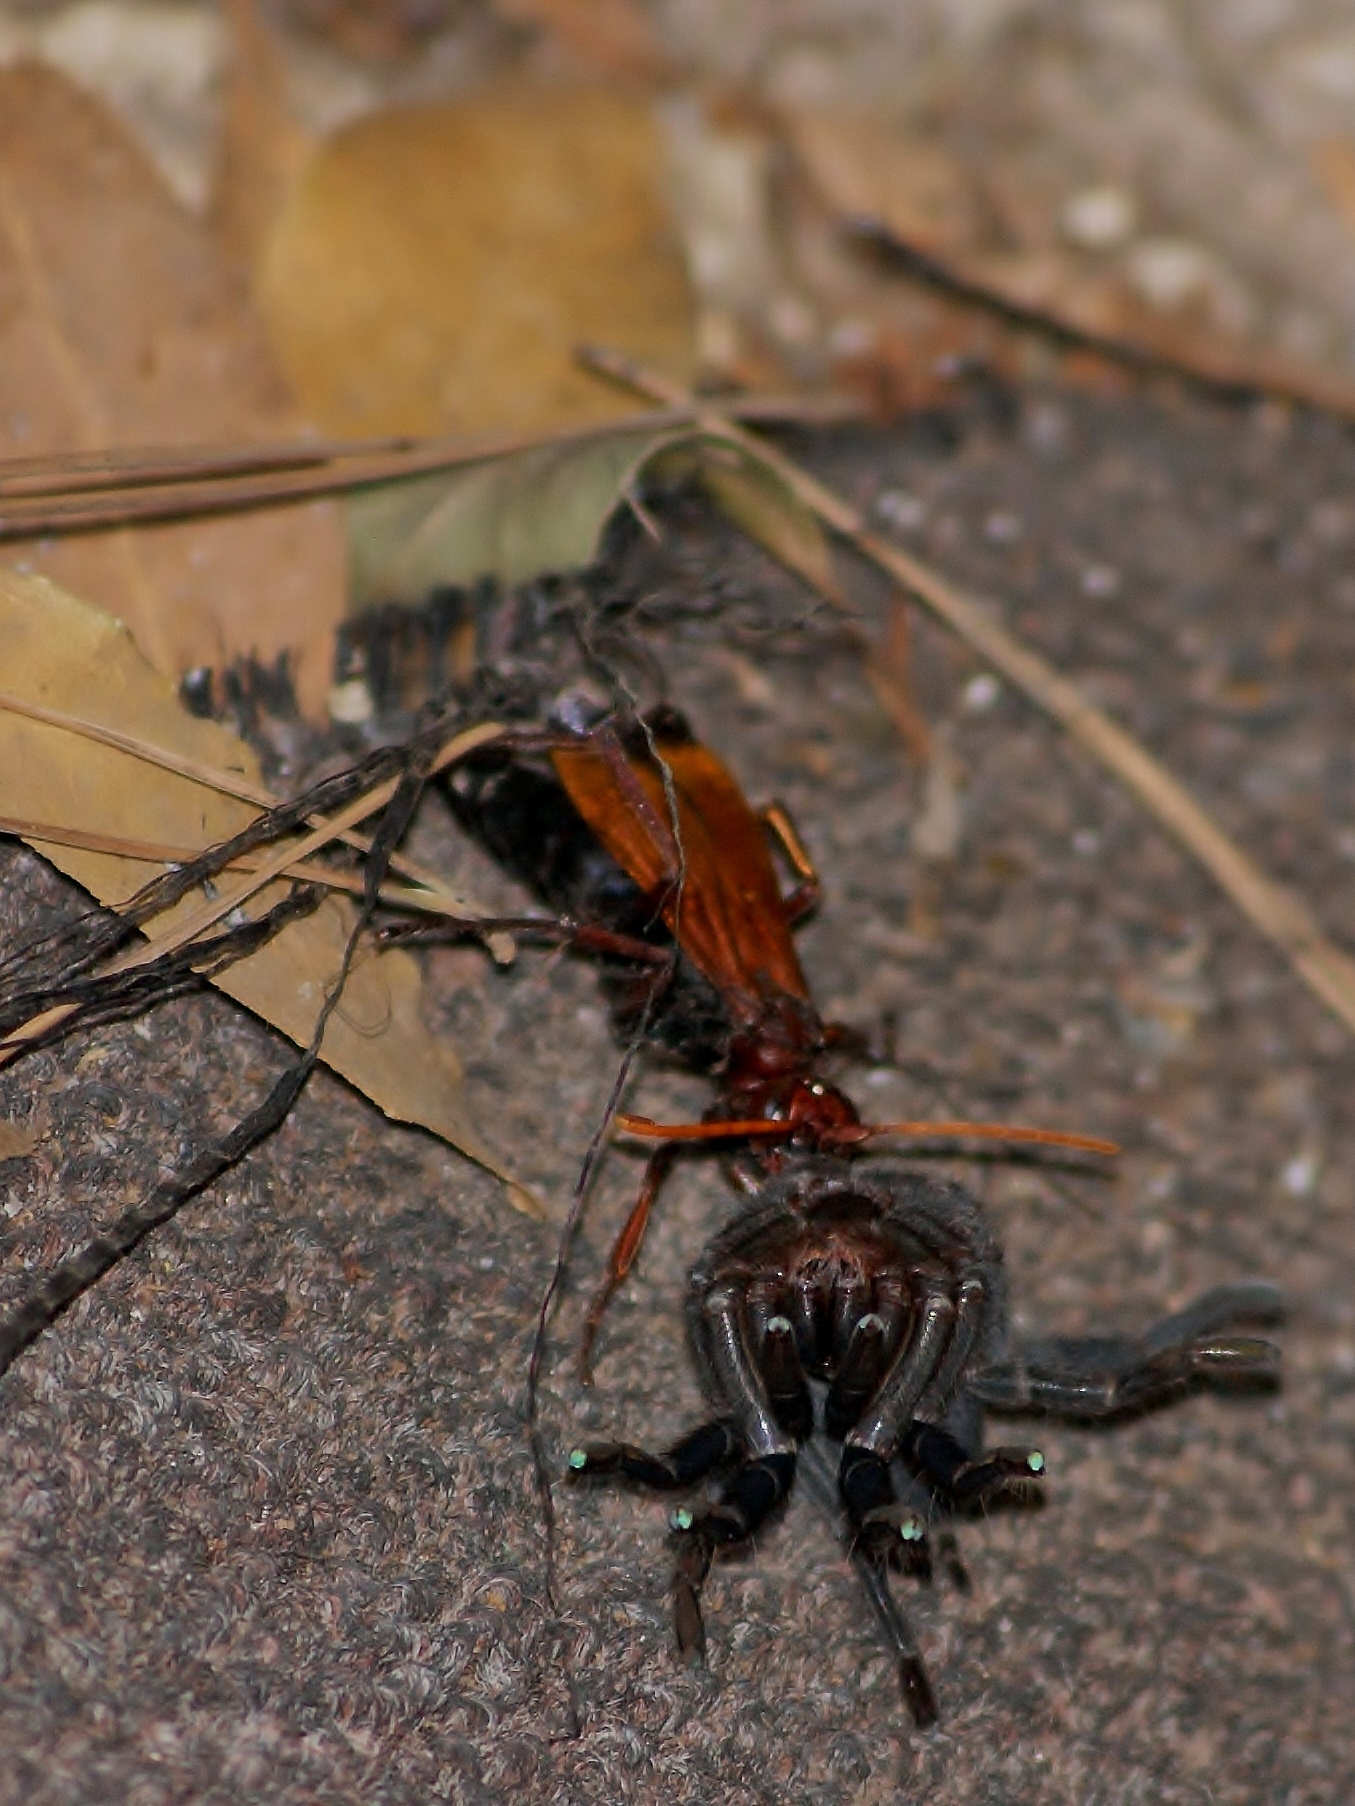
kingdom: Animalia
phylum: Arthropoda
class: Insecta
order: Hymenoptera
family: Pompilidae
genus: Hemipepsis
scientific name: Hemipepsis brunnea
